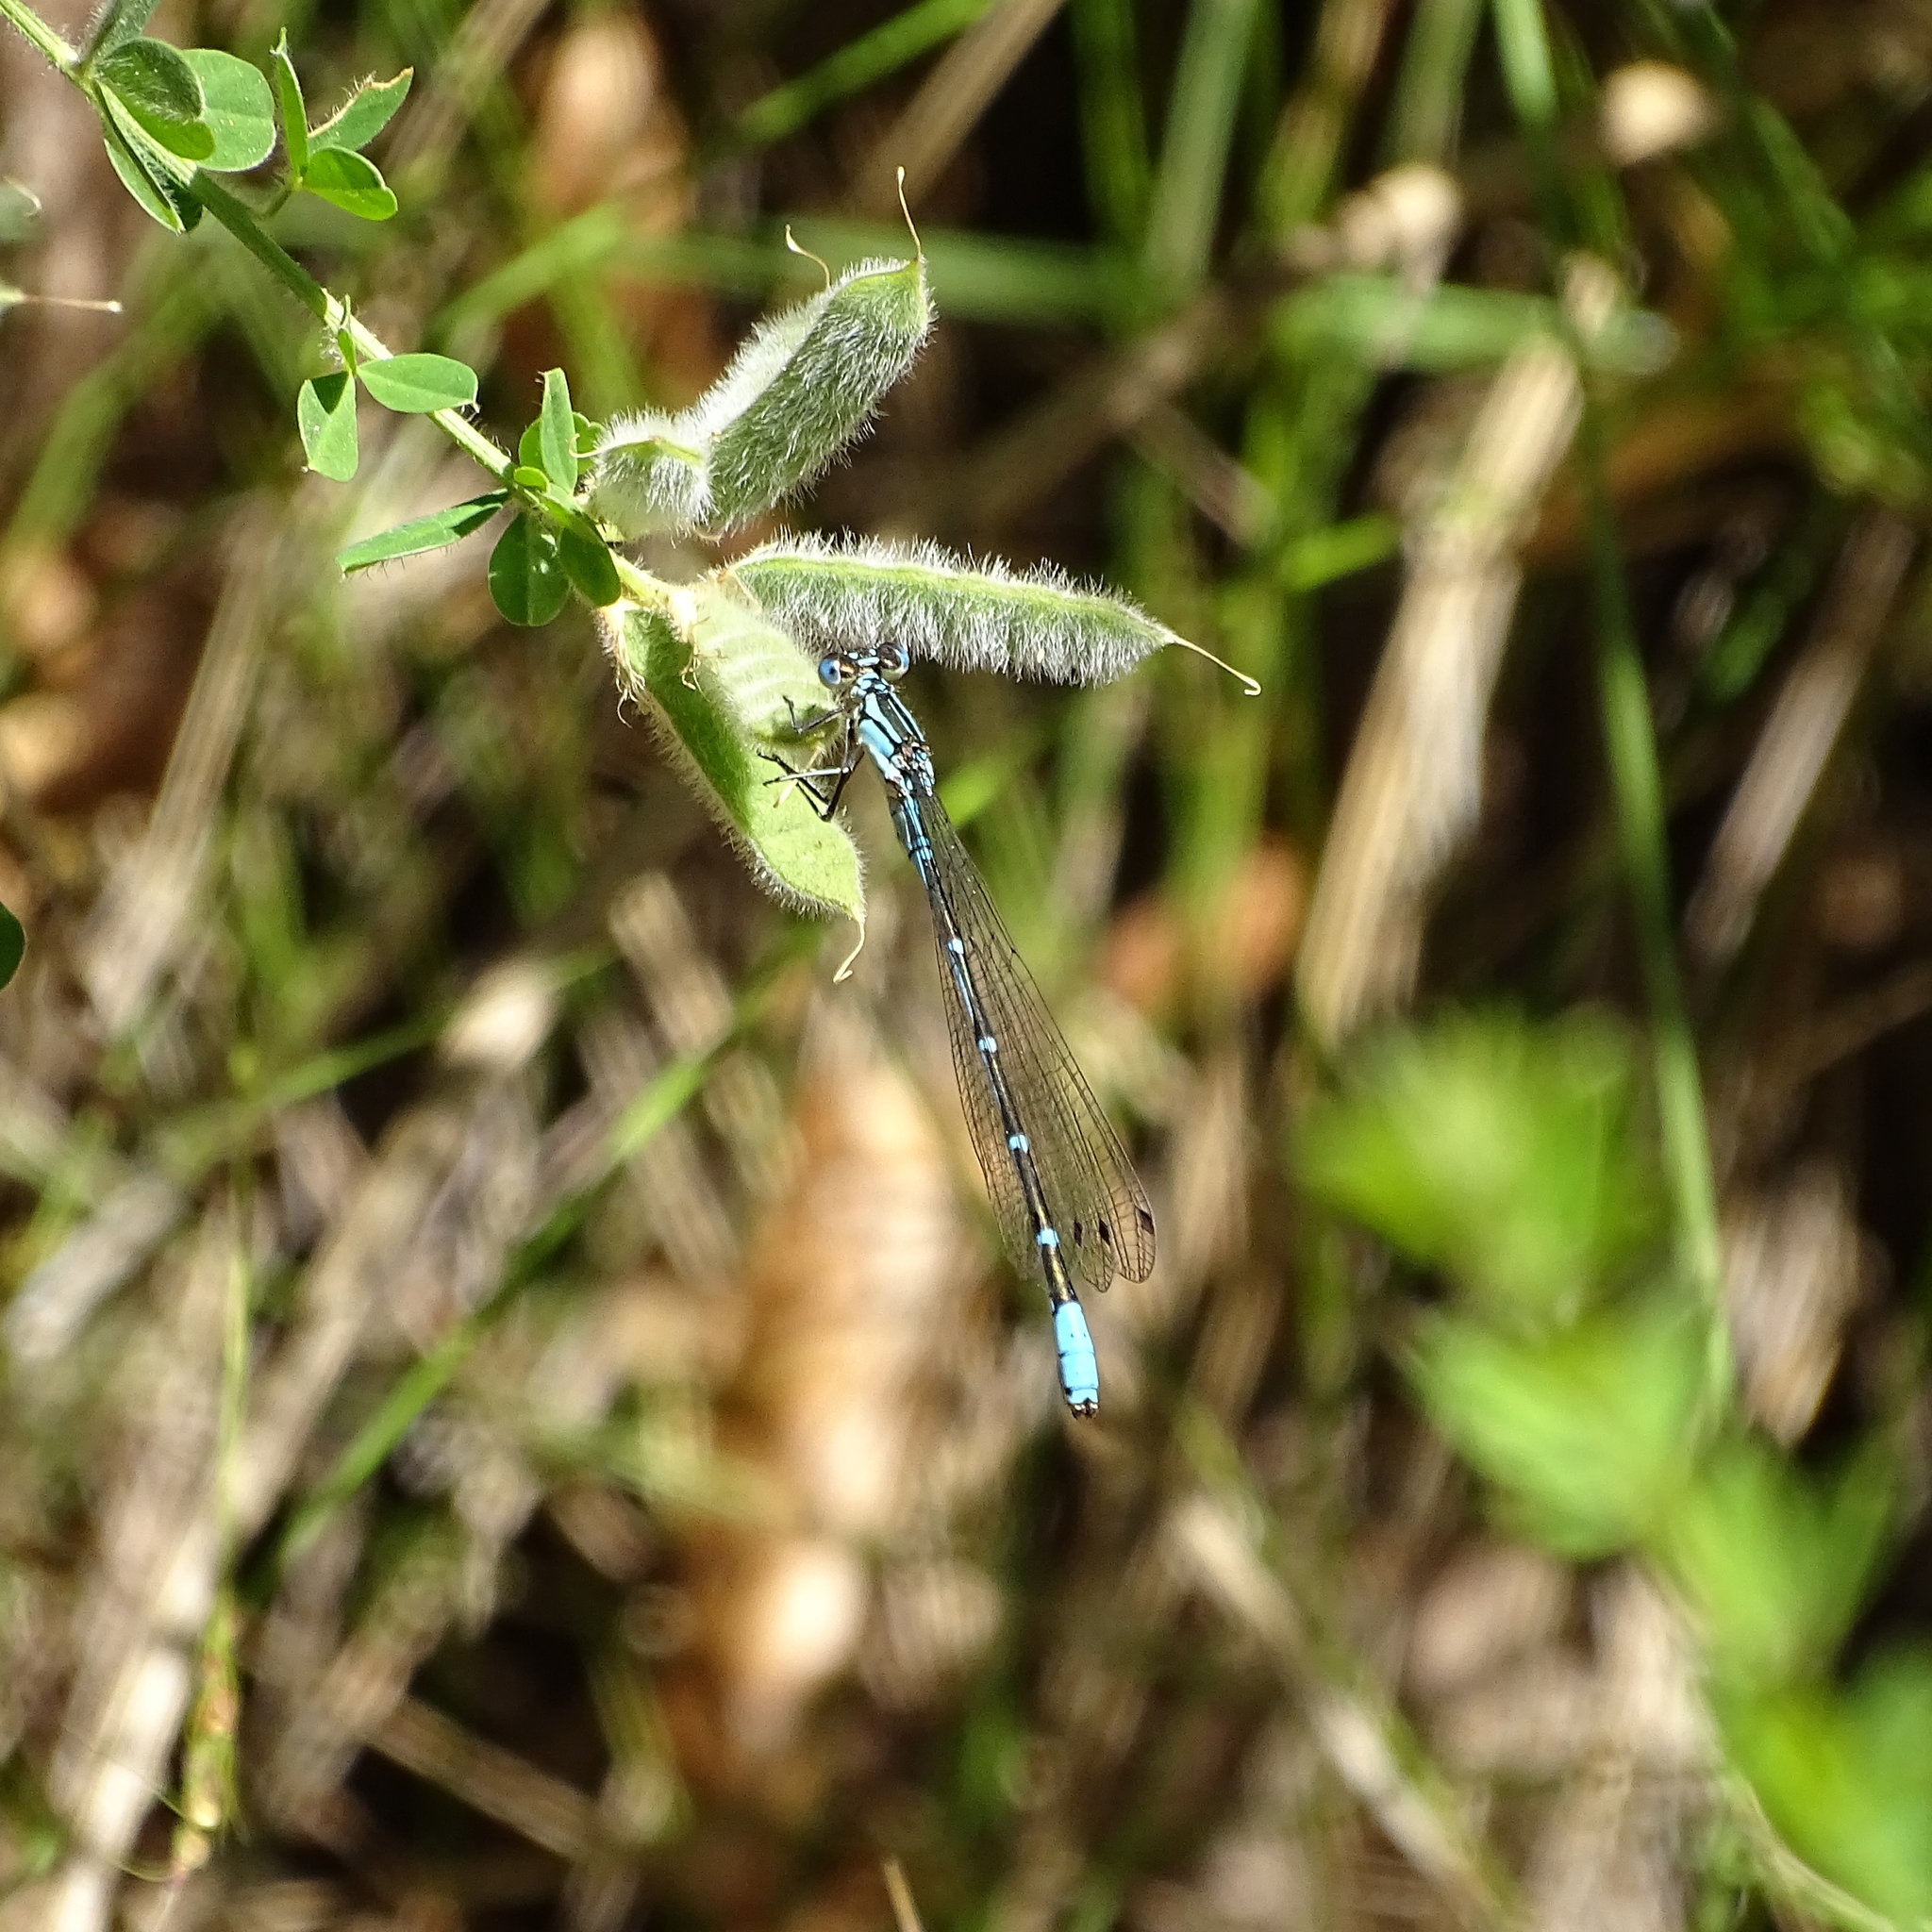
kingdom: Animalia
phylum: Arthropoda
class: Insecta
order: Odonata
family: Coenagrionidae
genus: Antiagrion
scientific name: Antiagrion gayi
